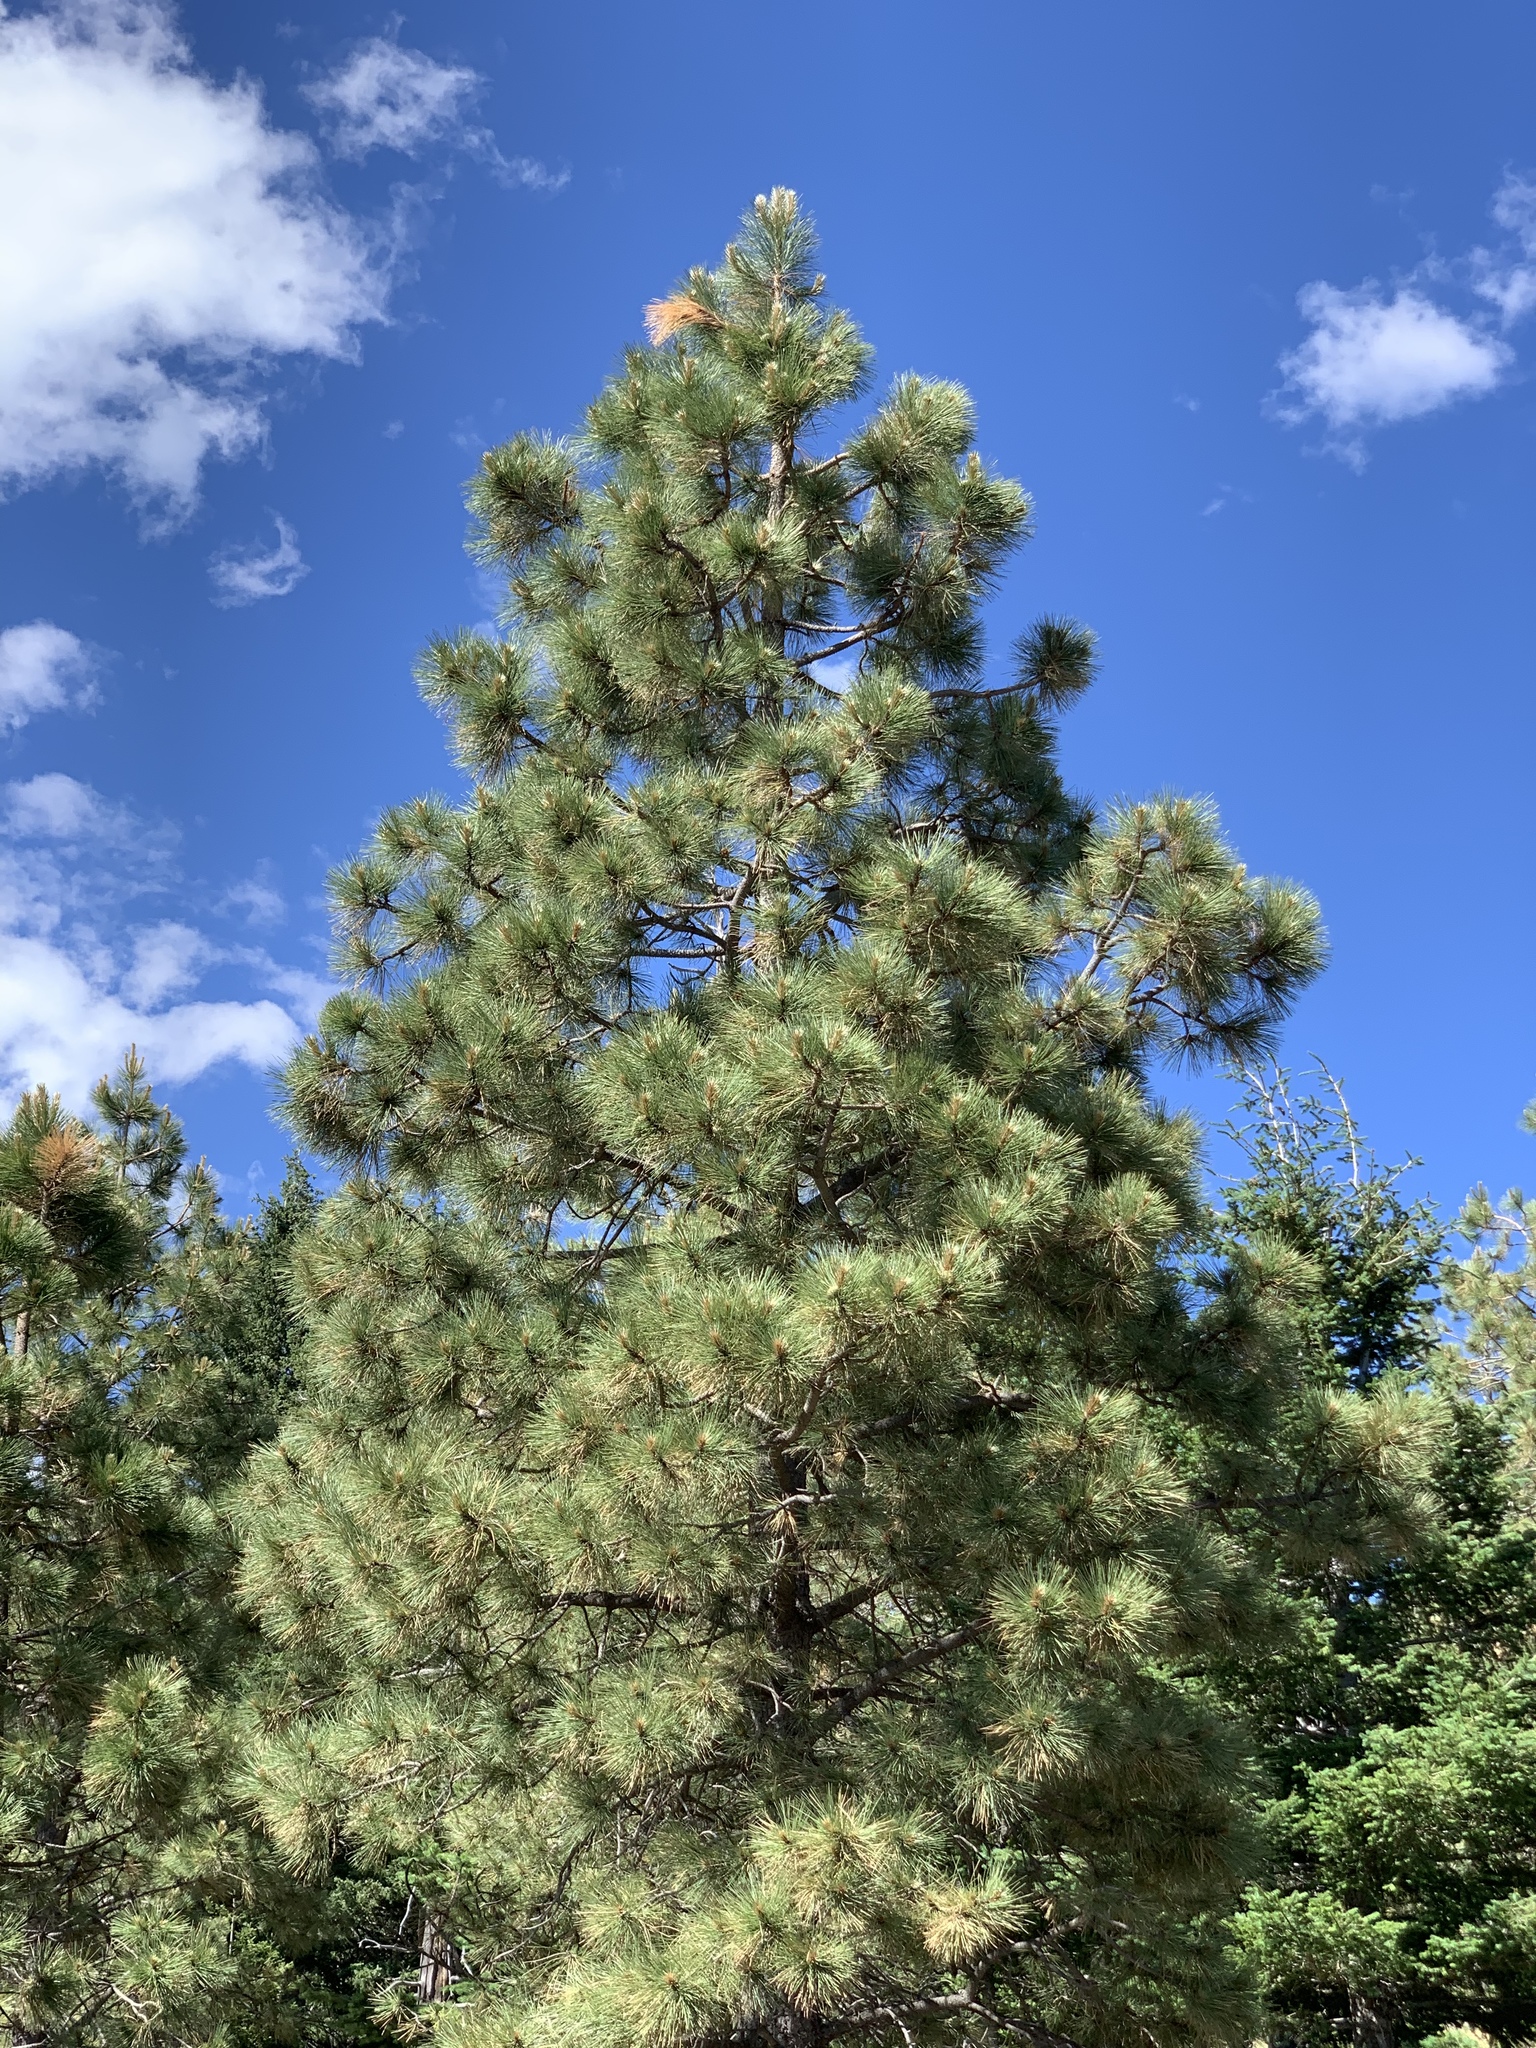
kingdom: Plantae
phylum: Tracheophyta
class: Pinopsida
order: Pinales
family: Pinaceae
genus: Pinus
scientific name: Pinus ponderosa
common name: Western yellow-pine
